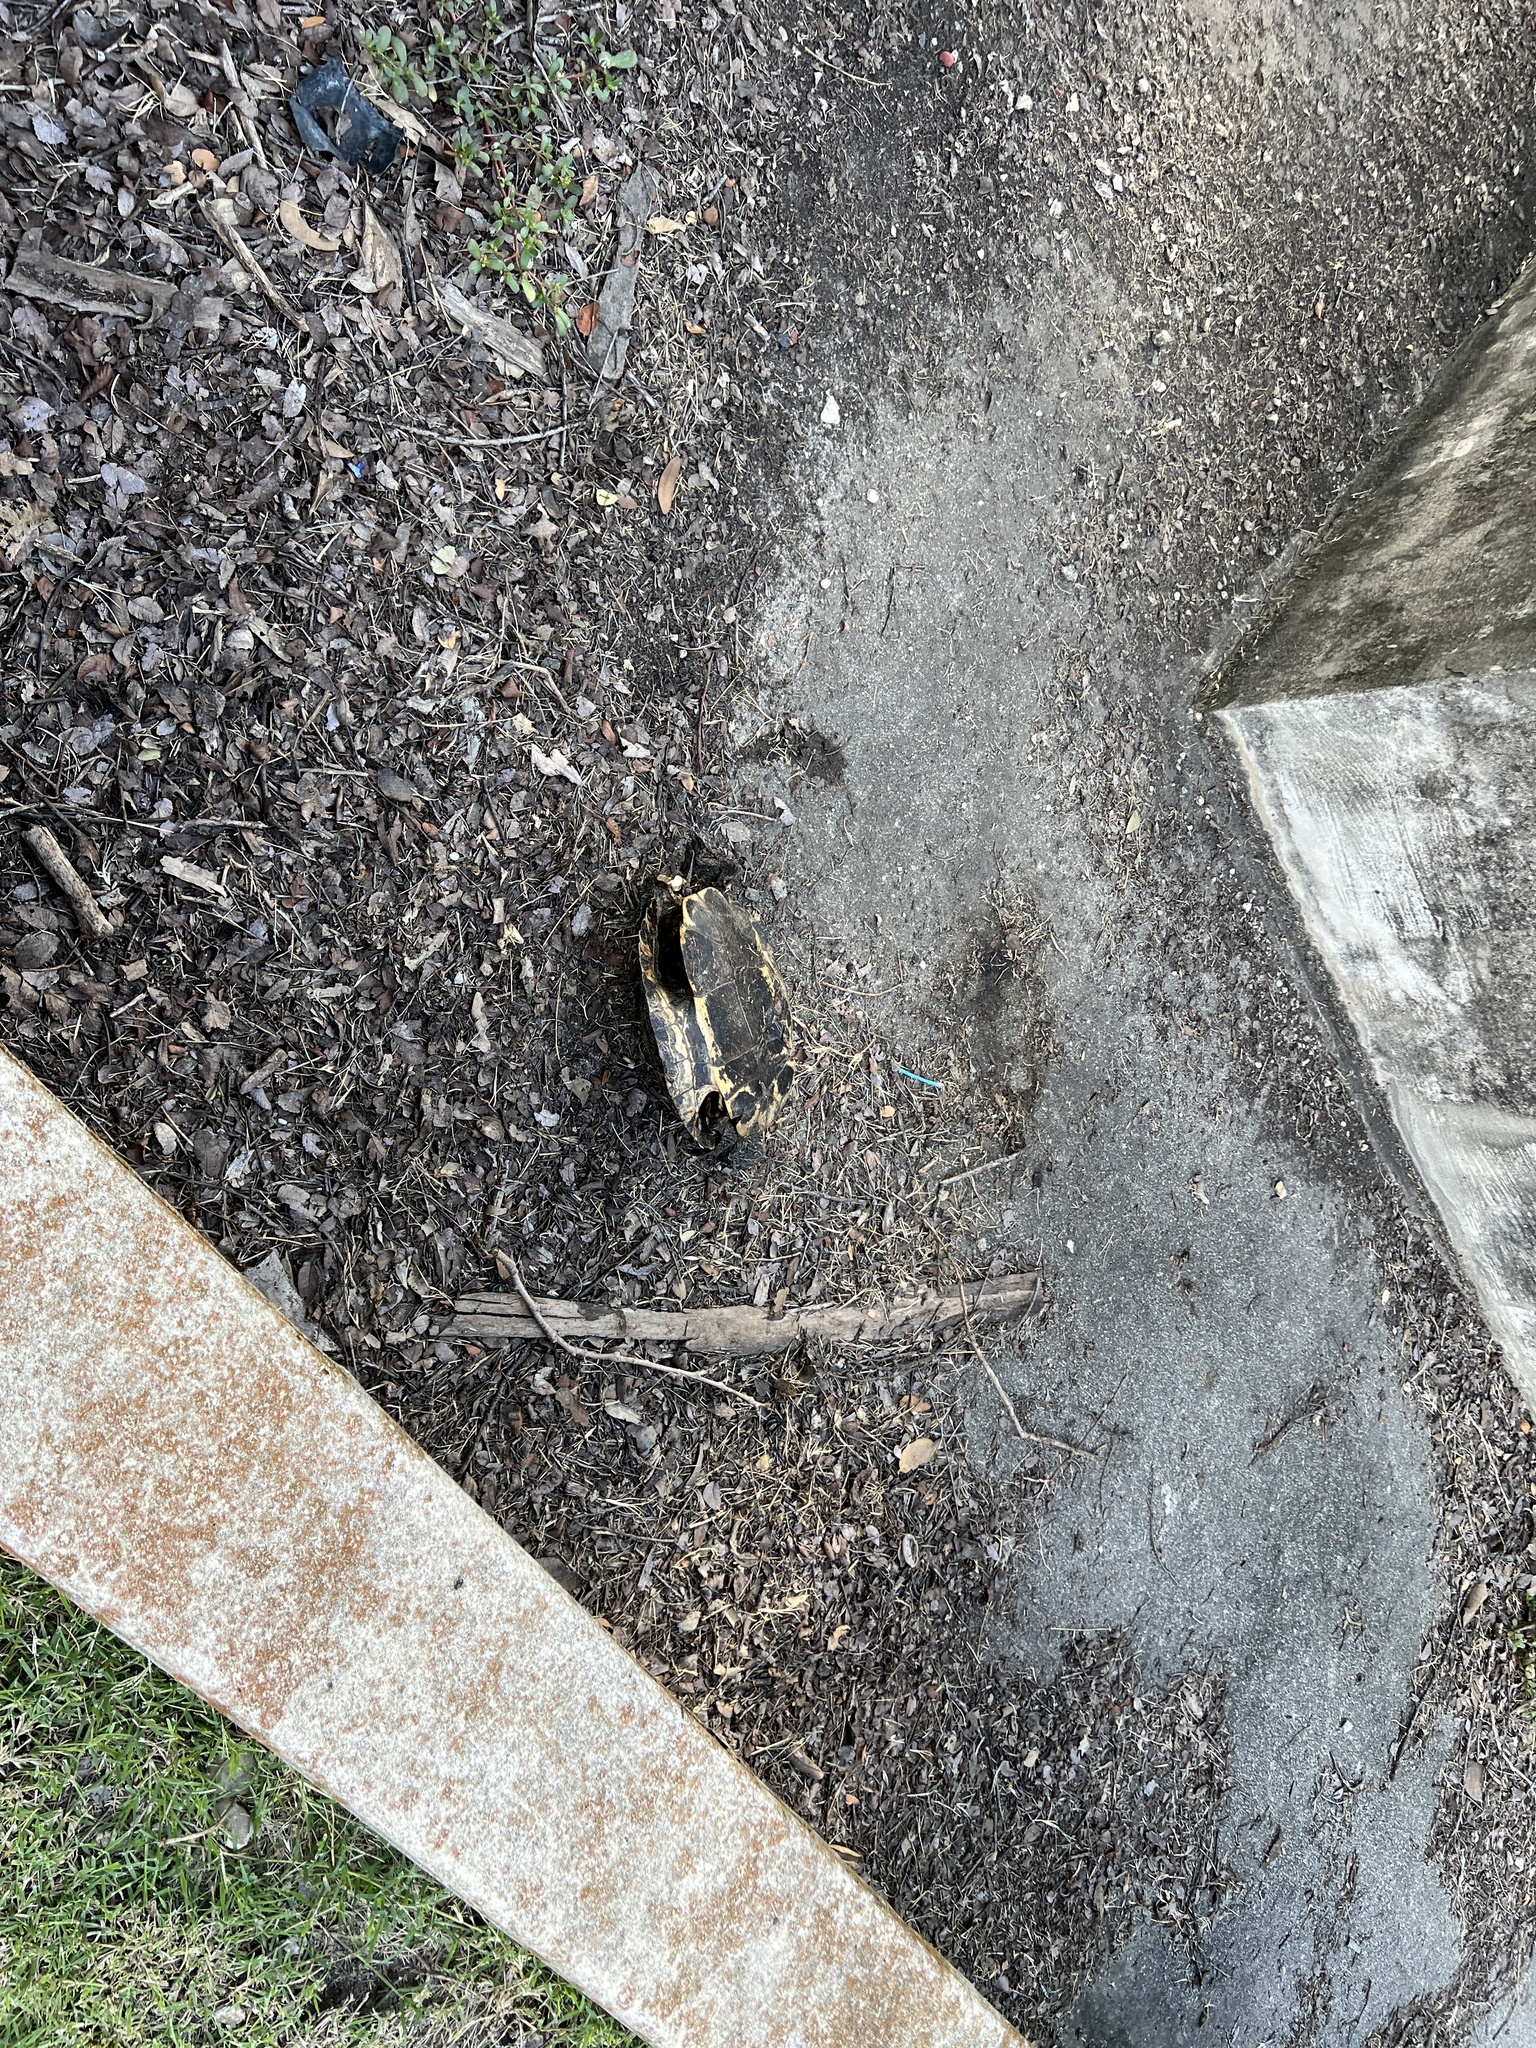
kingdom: Animalia
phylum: Chordata
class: Testudines
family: Emydidae
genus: Trachemys
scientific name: Trachemys scripta
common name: Slider
